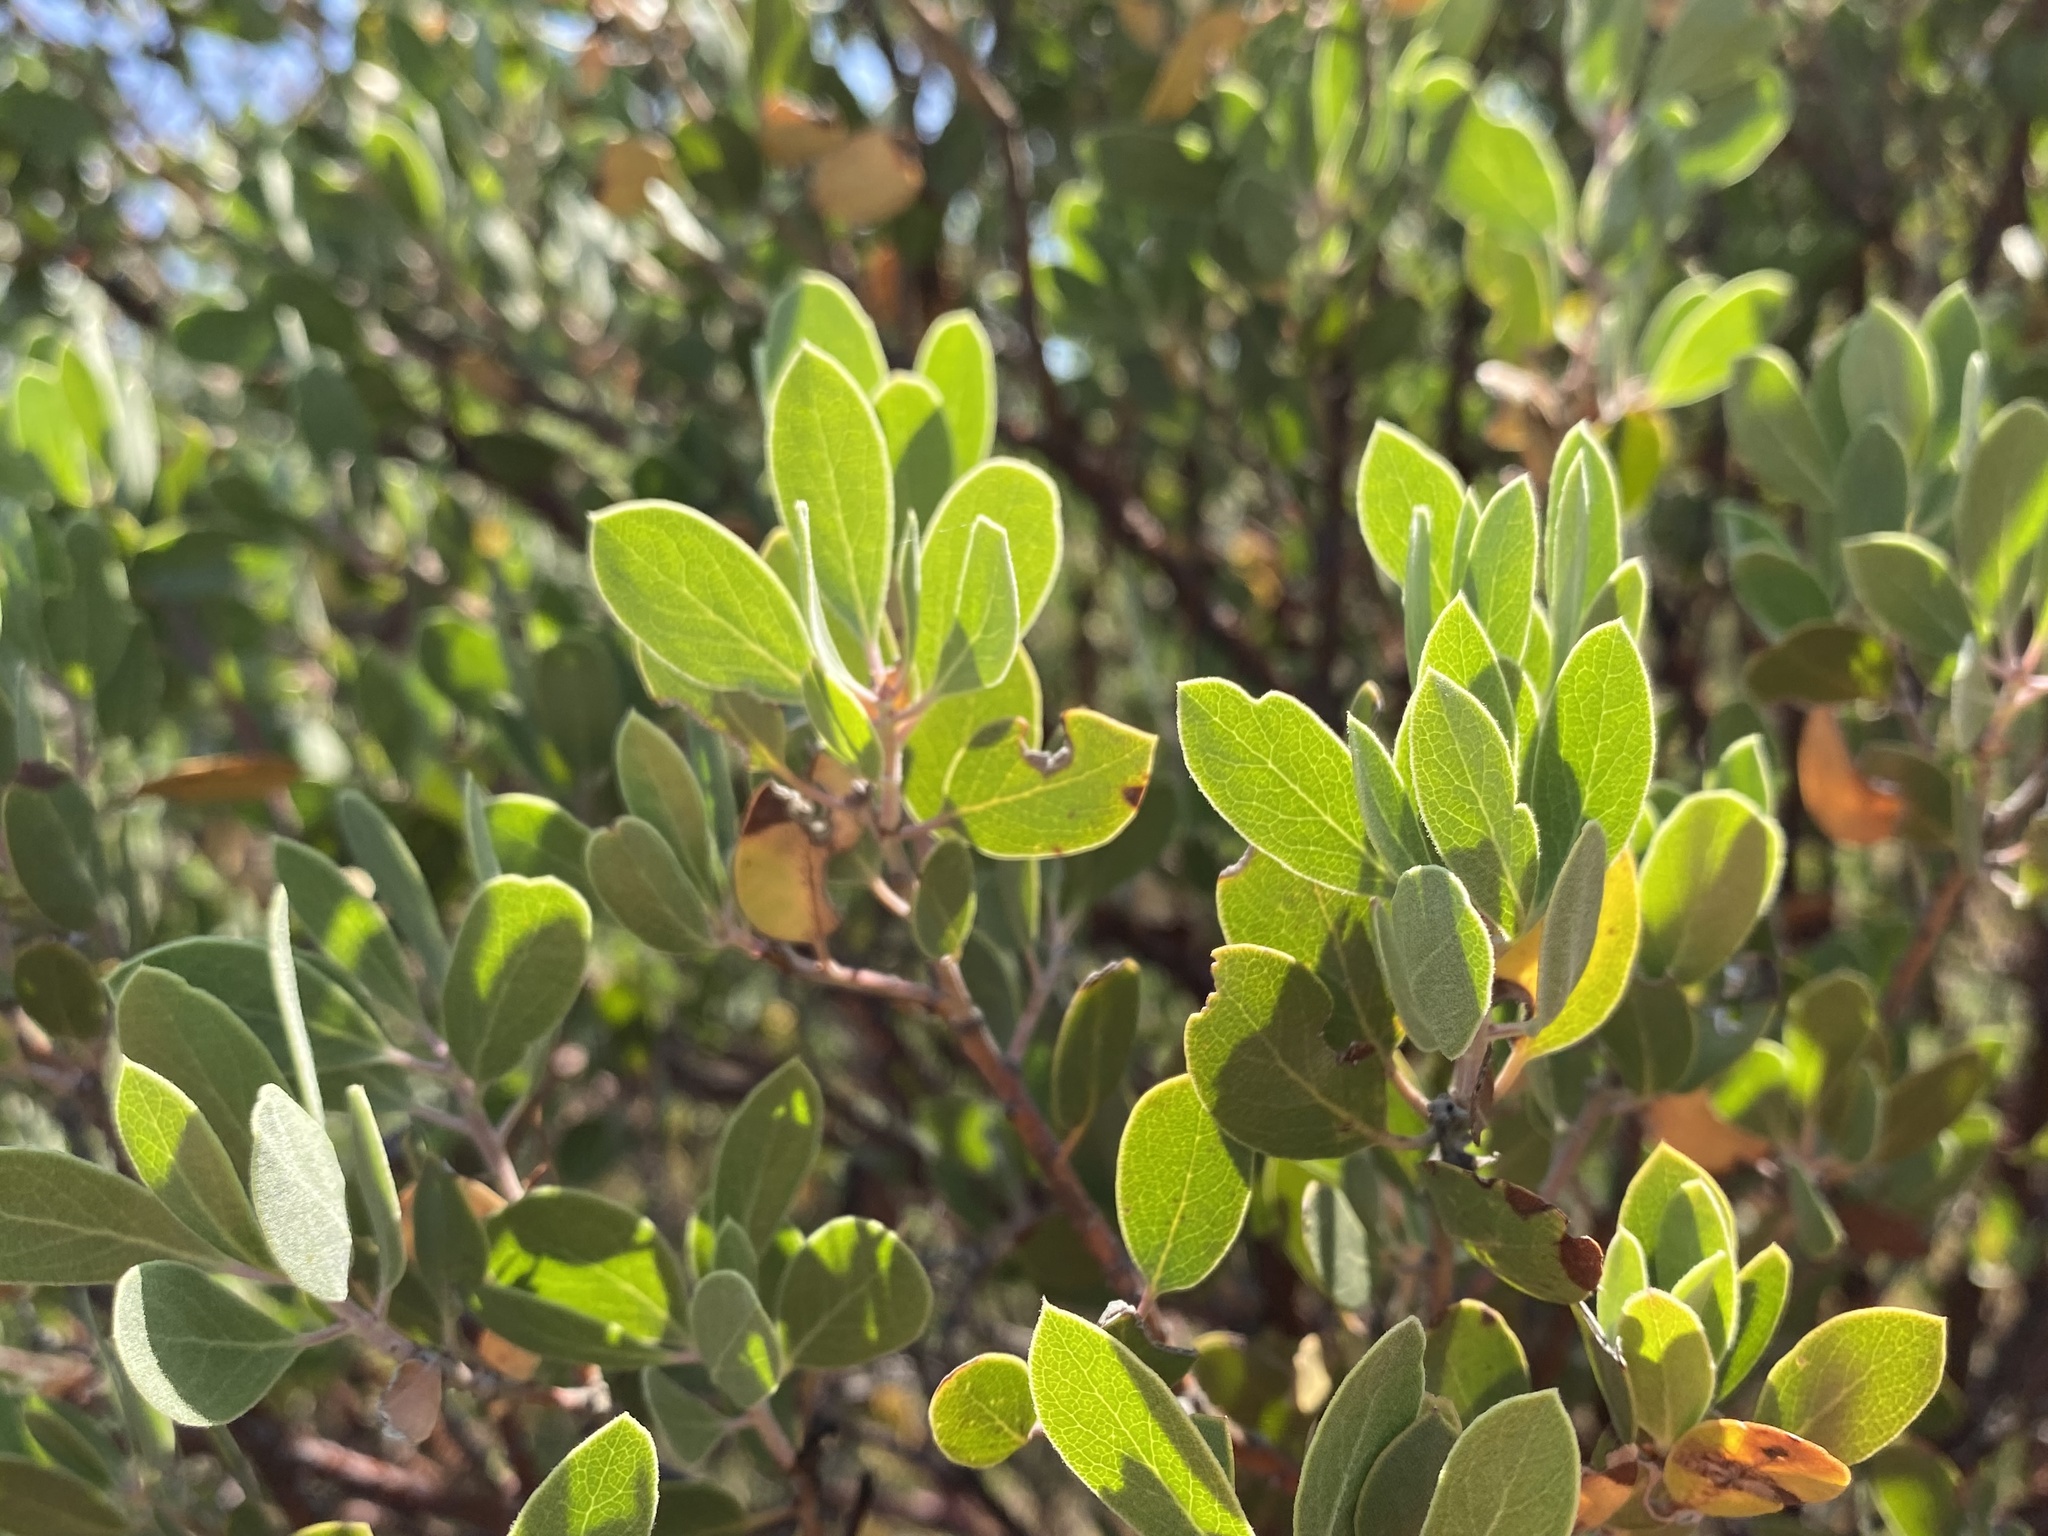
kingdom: Plantae
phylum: Tracheophyta
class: Magnoliopsida
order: Ericales
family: Ericaceae
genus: Arctostaphylos
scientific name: Arctostaphylos pungens
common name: Mexican manzanita
